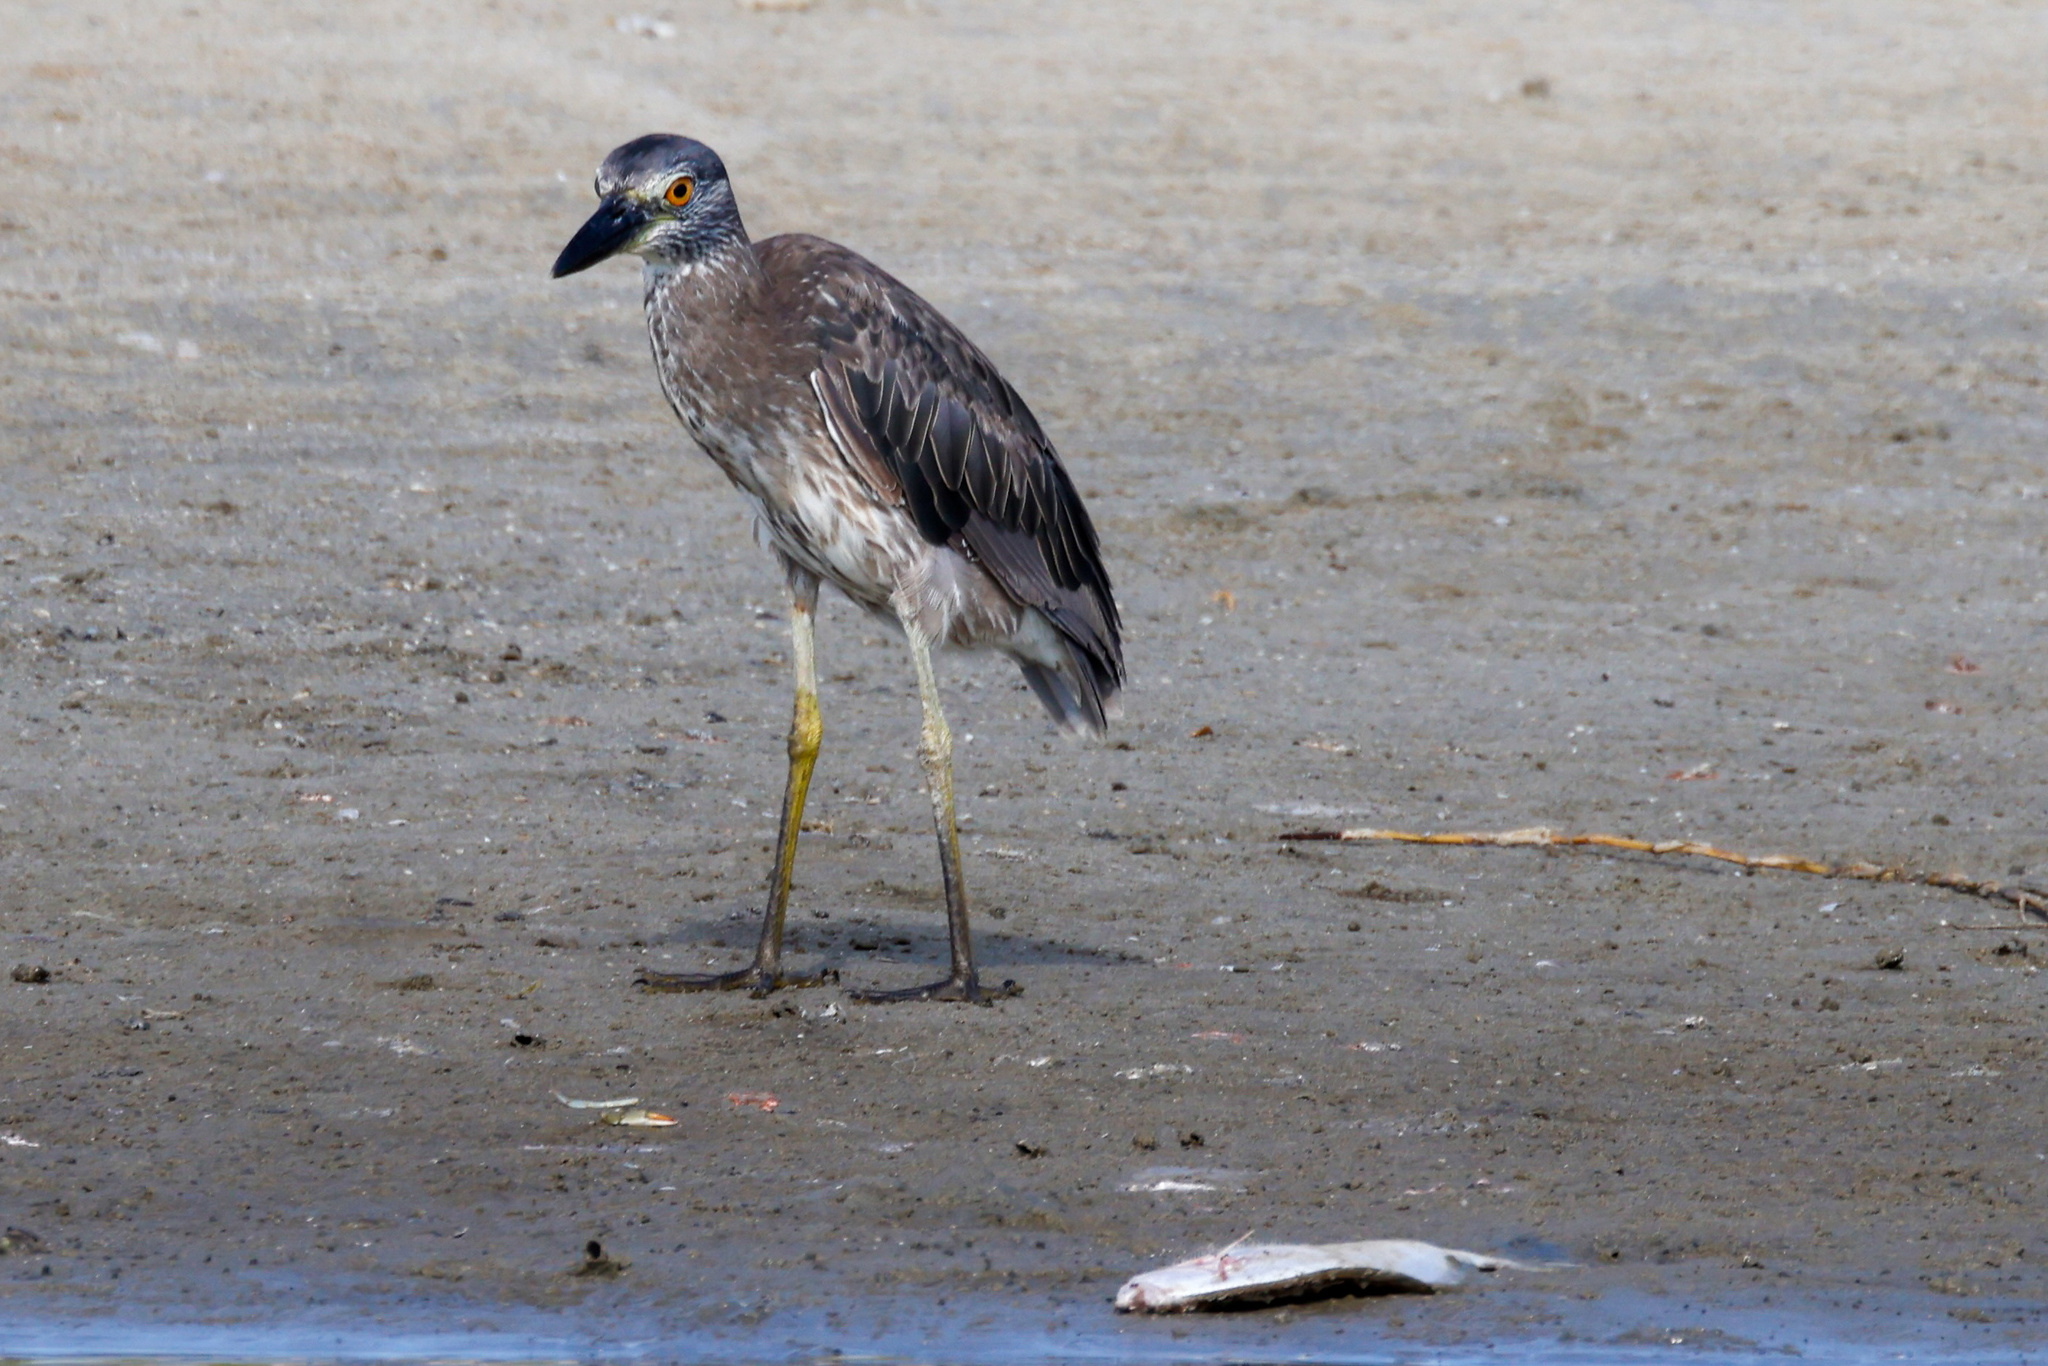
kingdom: Animalia
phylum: Chordata
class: Aves
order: Pelecaniformes
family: Ardeidae
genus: Nyctanassa
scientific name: Nyctanassa violacea
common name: Yellow-crowned night heron
